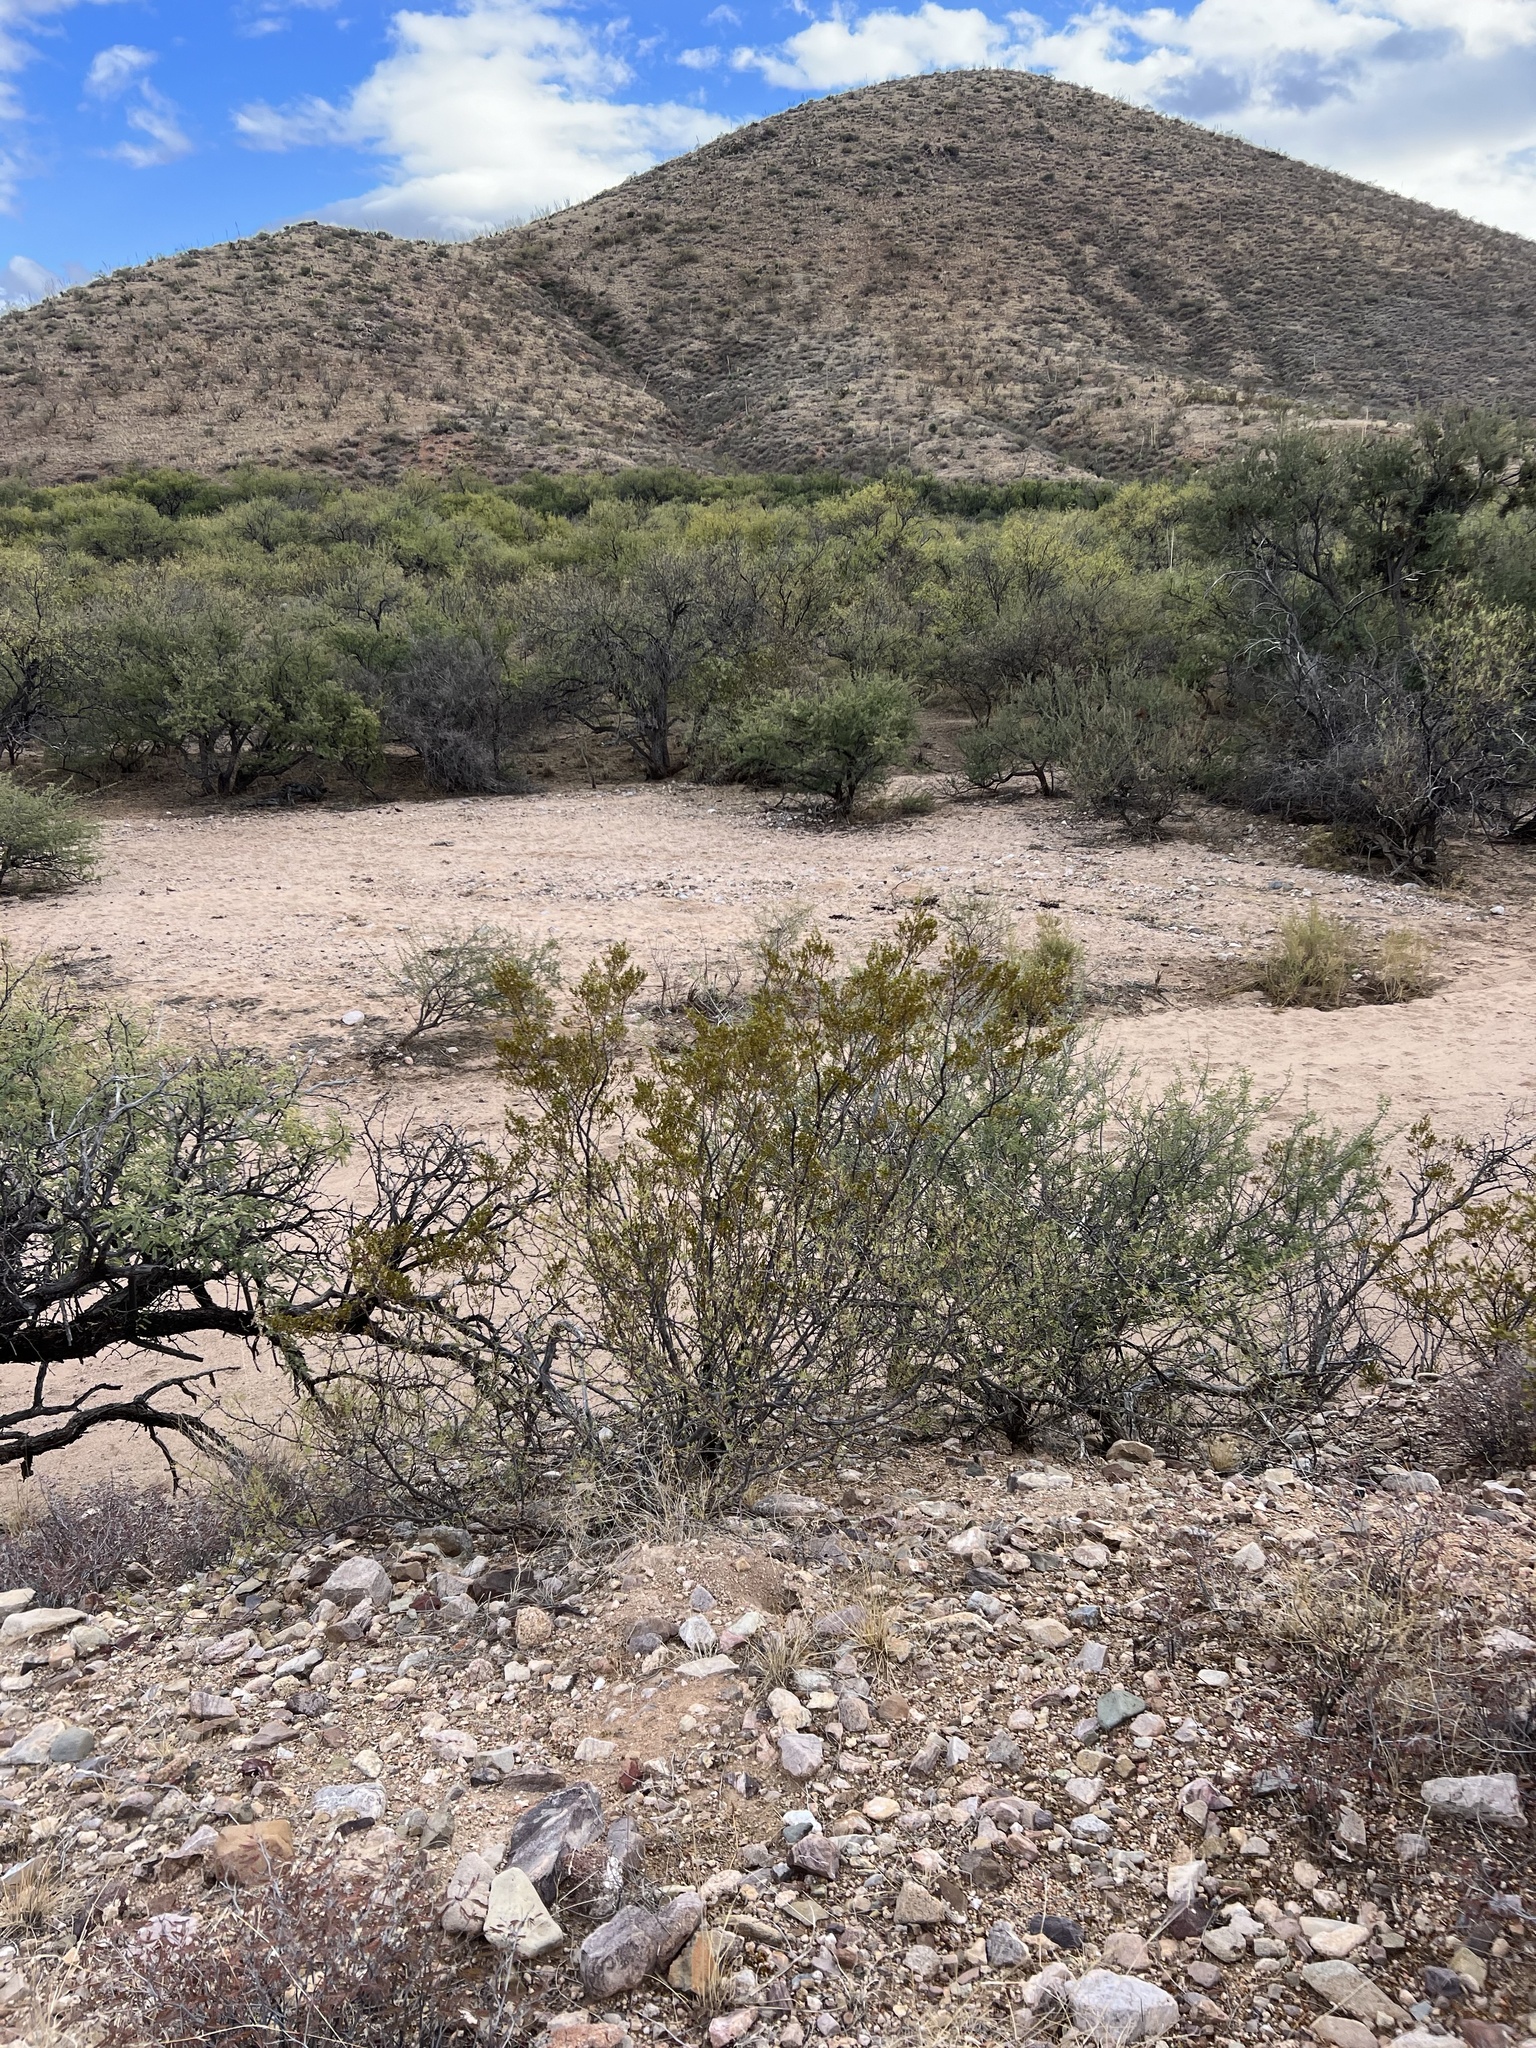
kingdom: Plantae
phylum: Tracheophyta
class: Magnoliopsida
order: Zygophyllales
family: Zygophyllaceae
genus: Larrea
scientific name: Larrea tridentata
